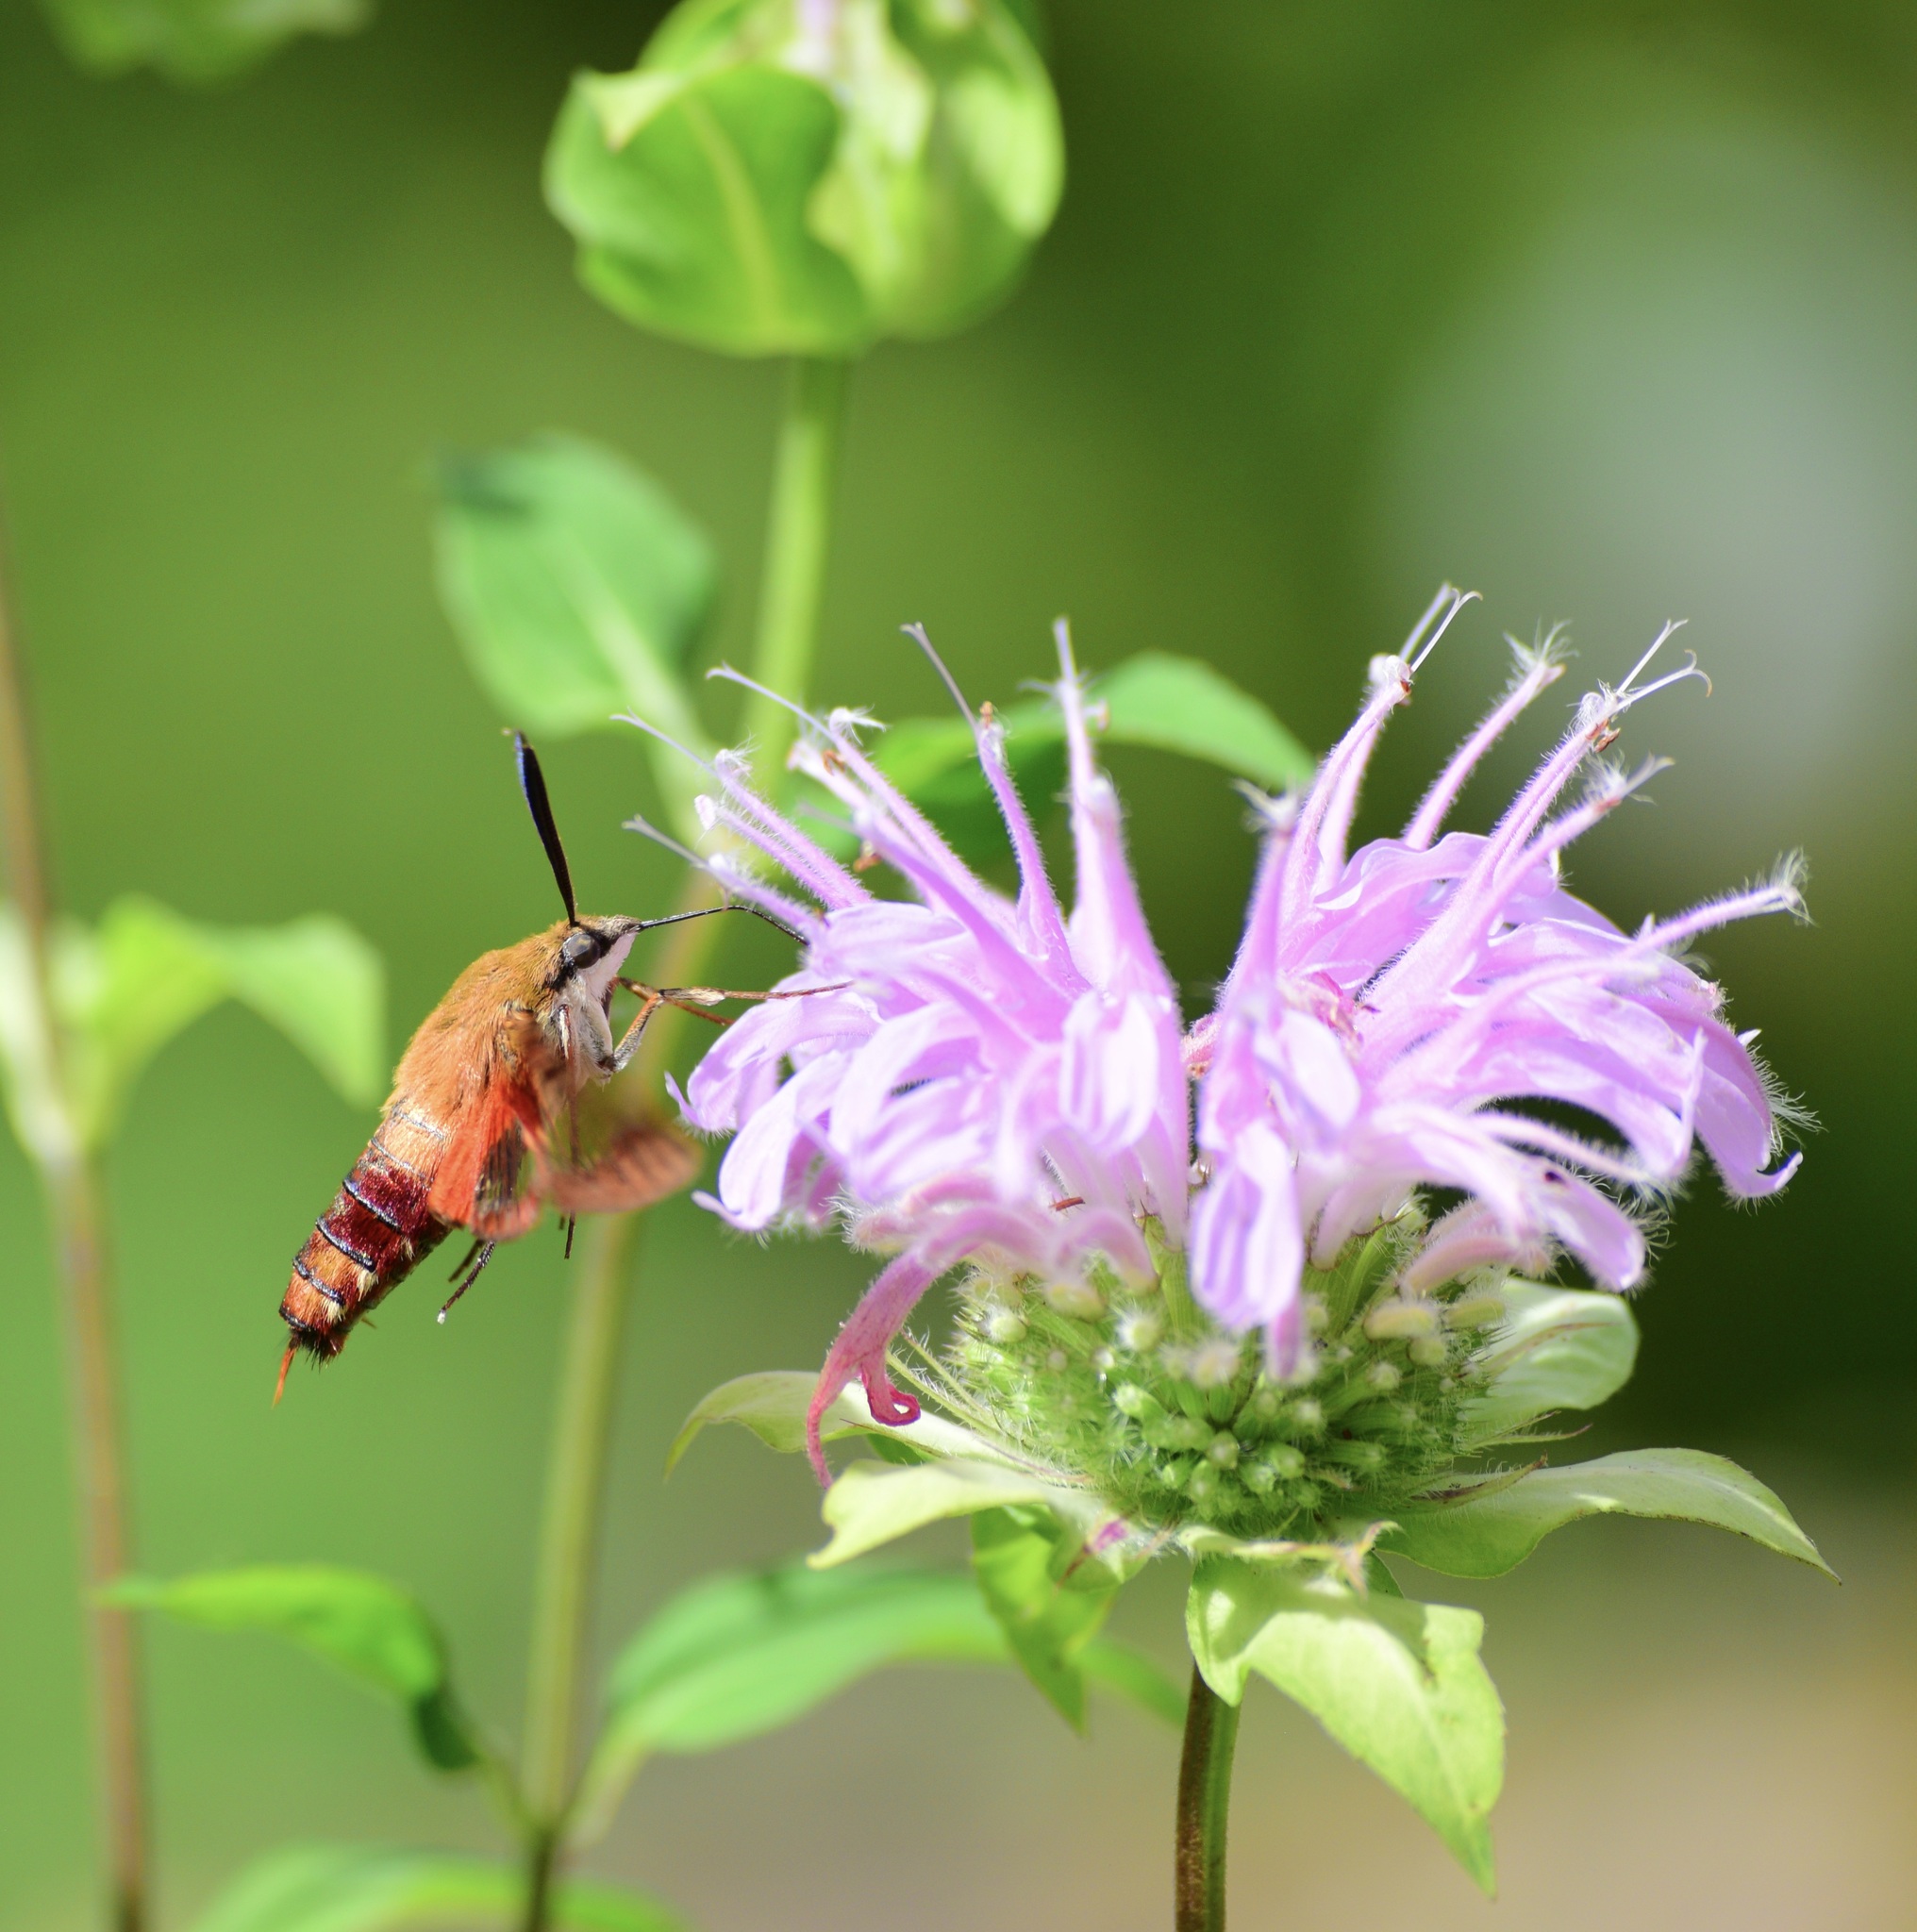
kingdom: Animalia
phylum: Arthropoda
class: Insecta
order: Lepidoptera
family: Sphingidae
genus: Hemaris
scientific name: Hemaris thysbe
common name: Common clear-wing
